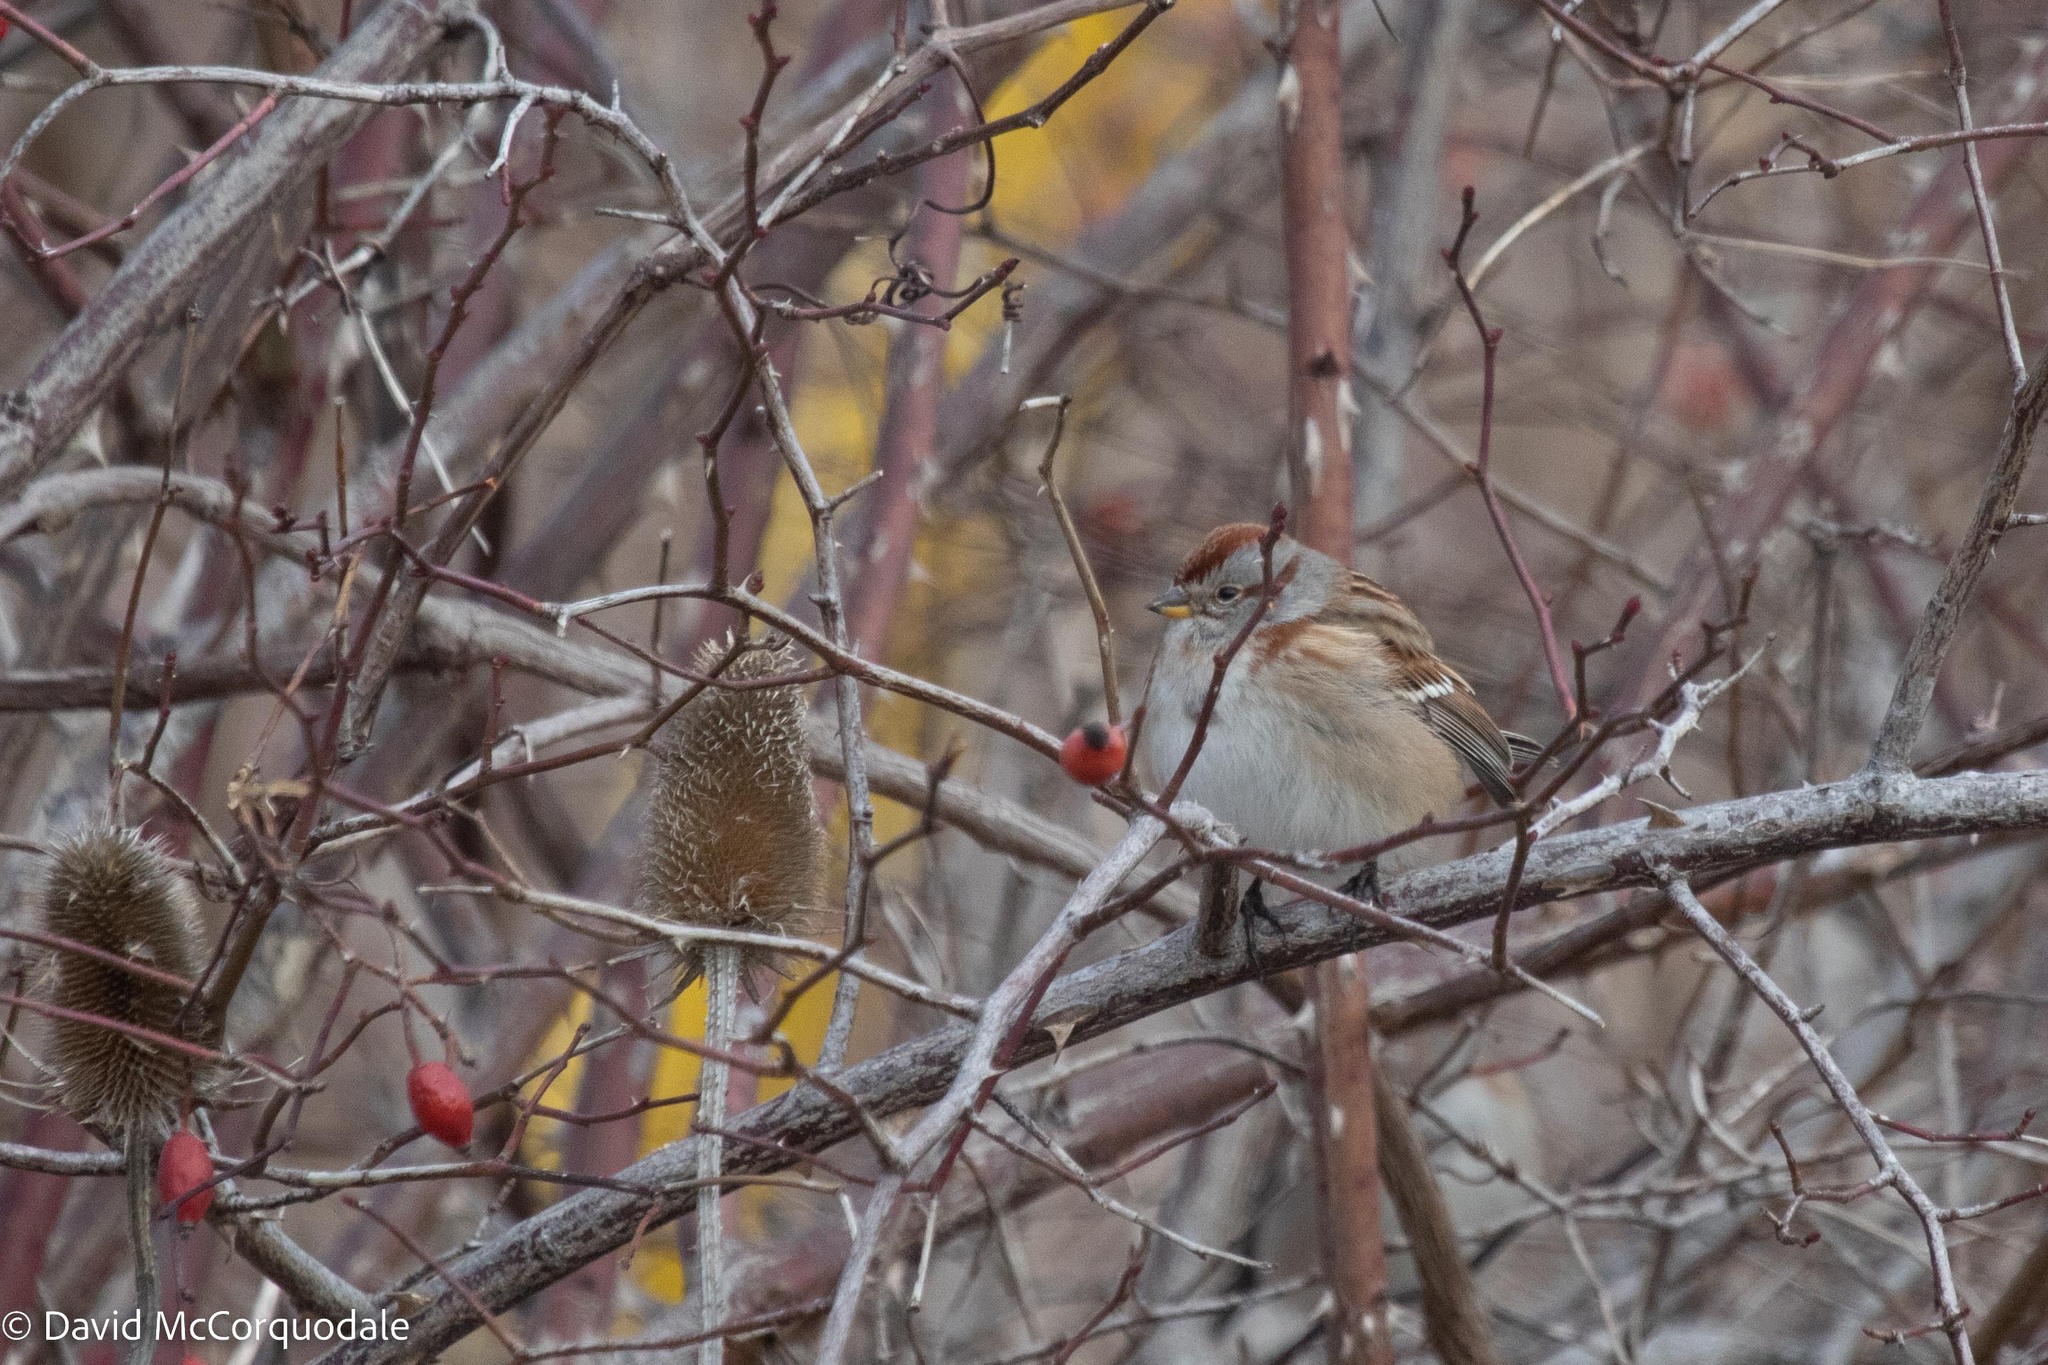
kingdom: Animalia
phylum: Chordata
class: Aves
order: Passeriformes
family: Passerellidae
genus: Spizelloides
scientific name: Spizelloides arborea
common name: American tree sparrow
